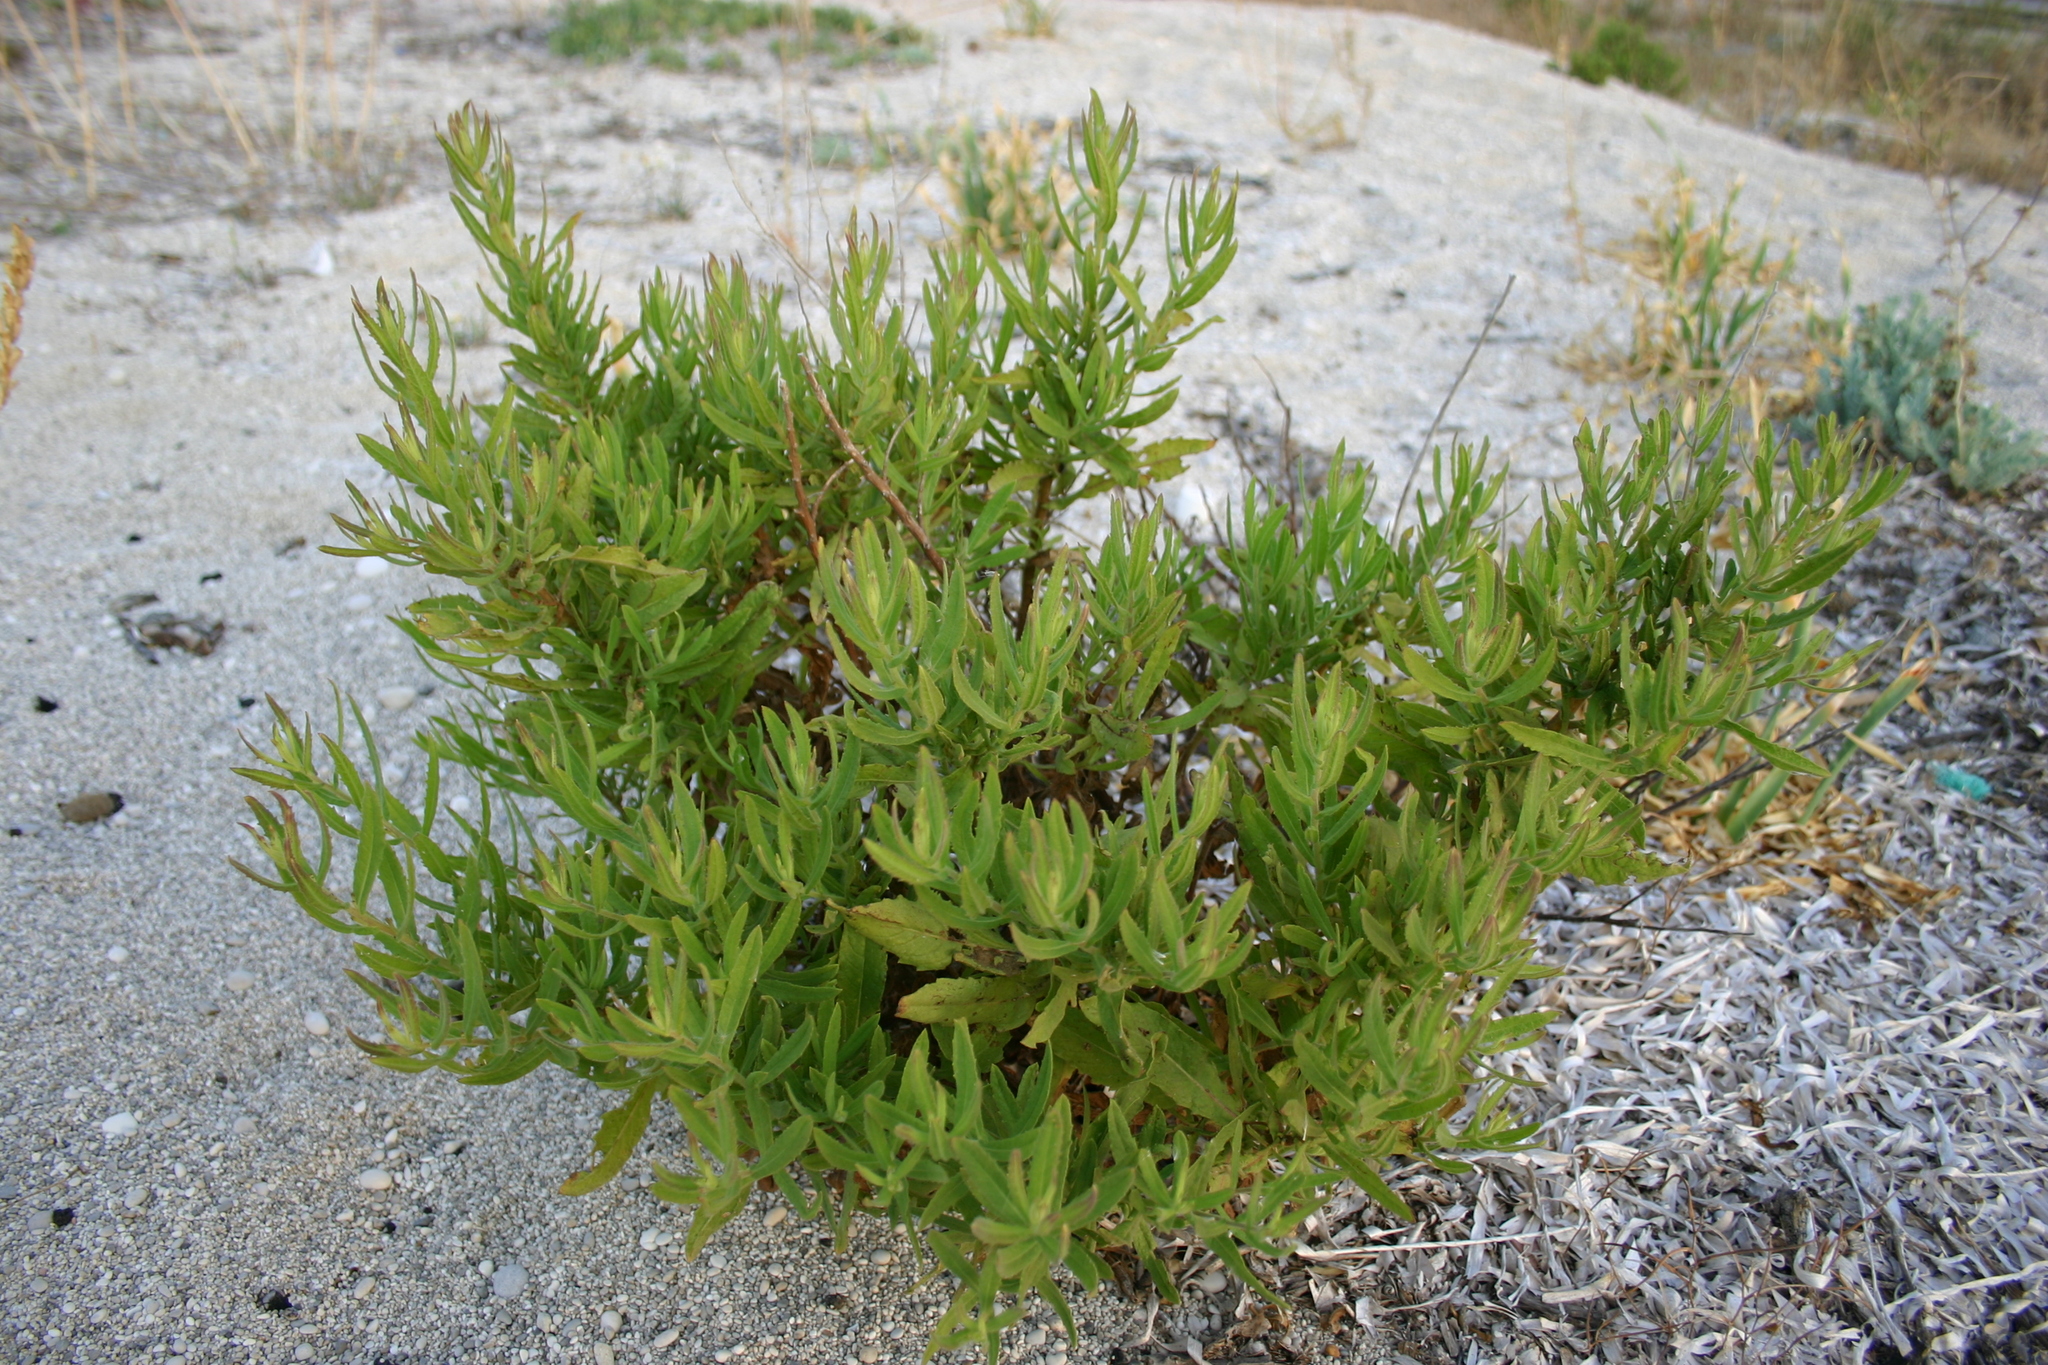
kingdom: Plantae
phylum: Tracheophyta
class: Magnoliopsida
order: Asterales
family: Asteraceae
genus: Dittrichia
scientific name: Dittrichia viscosa
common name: Woody fleabane
